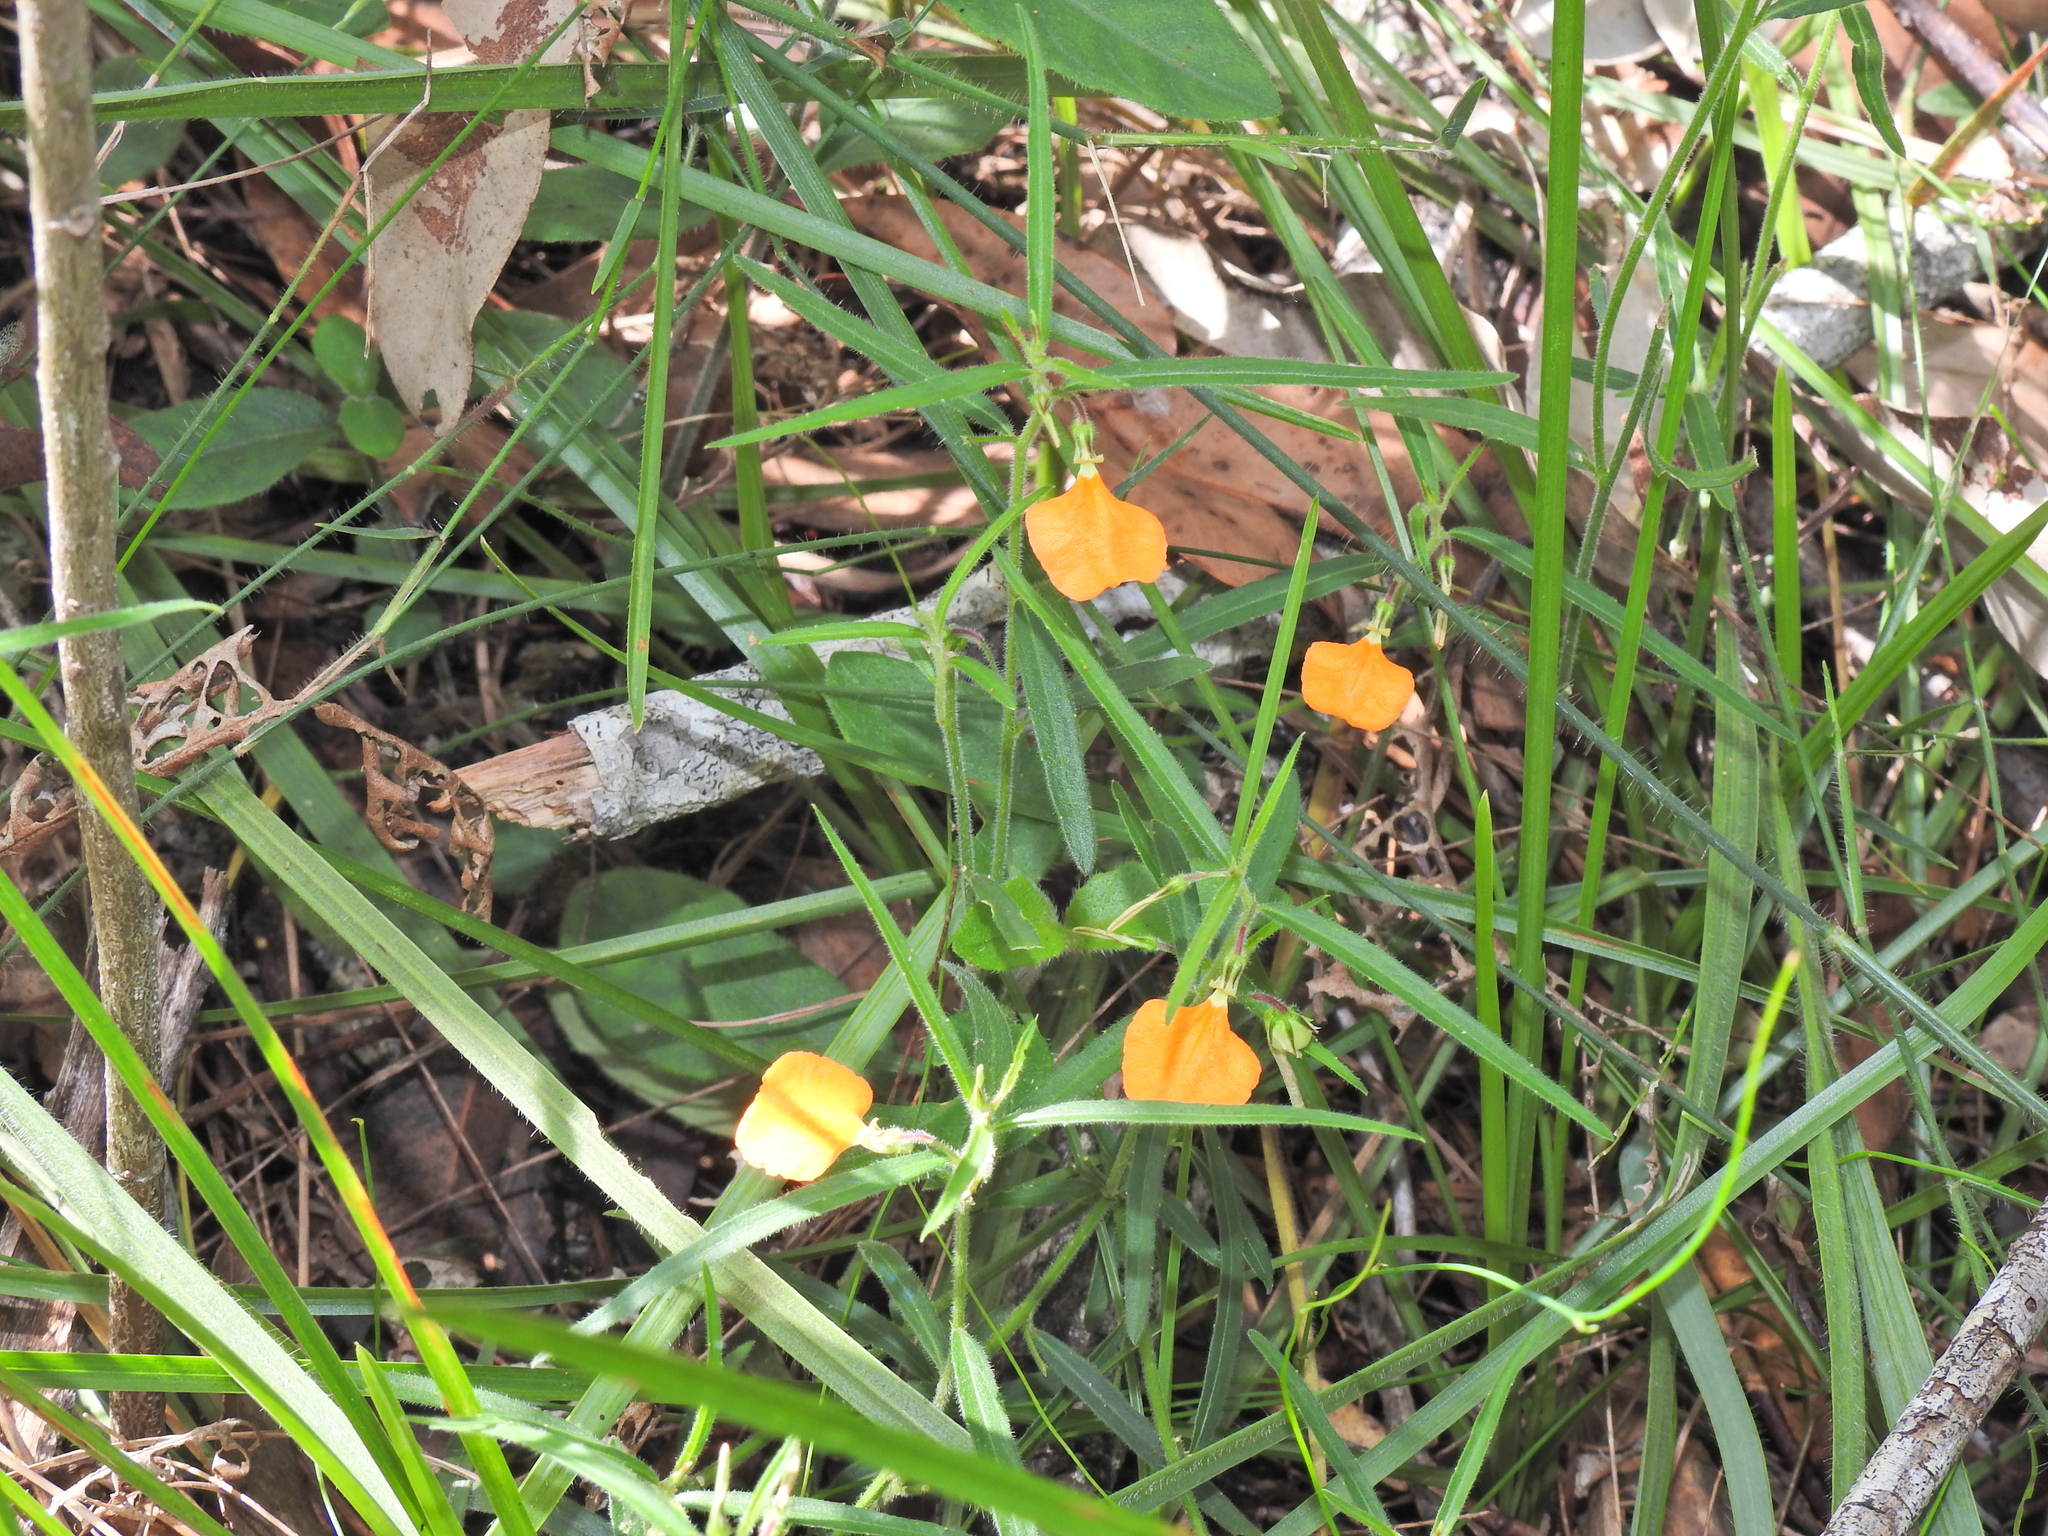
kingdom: Plantae
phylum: Tracheophyta
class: Magnoliopsida
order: Malpighiales
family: Violaceae
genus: Pigea
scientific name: Pigea stellarioides
